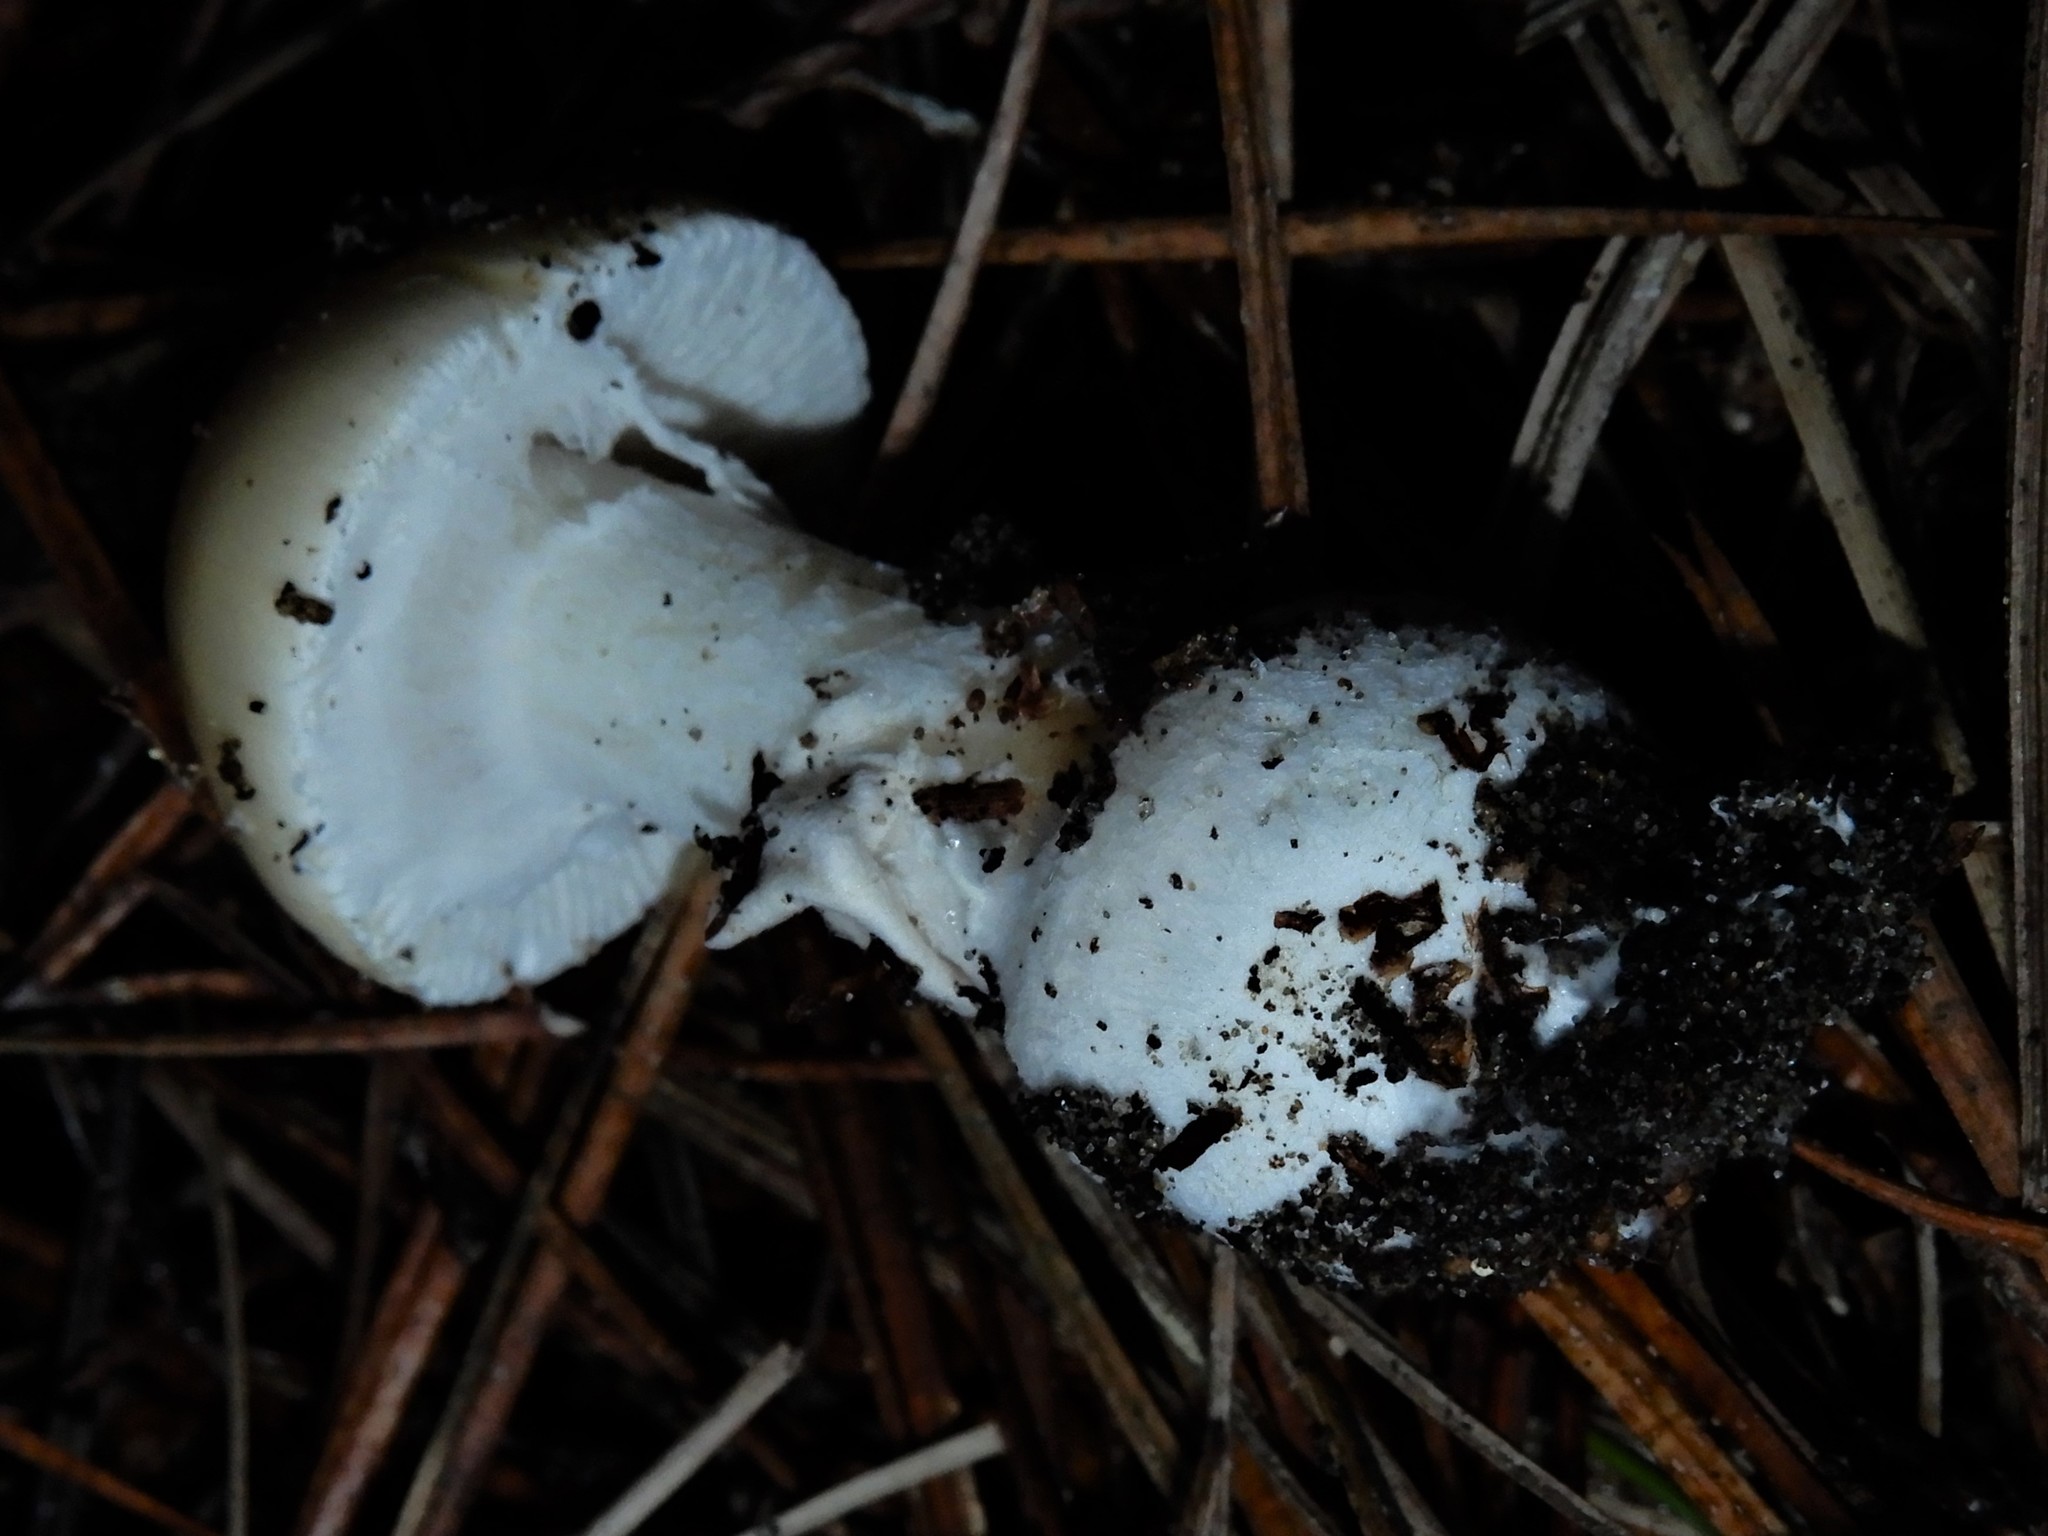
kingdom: Fungi
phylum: Basidiomycota
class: Agaricomycetes
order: Agaricales
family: Amanitaceae
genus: Amanita
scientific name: Amanita gemmata
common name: Jewelled amanita
